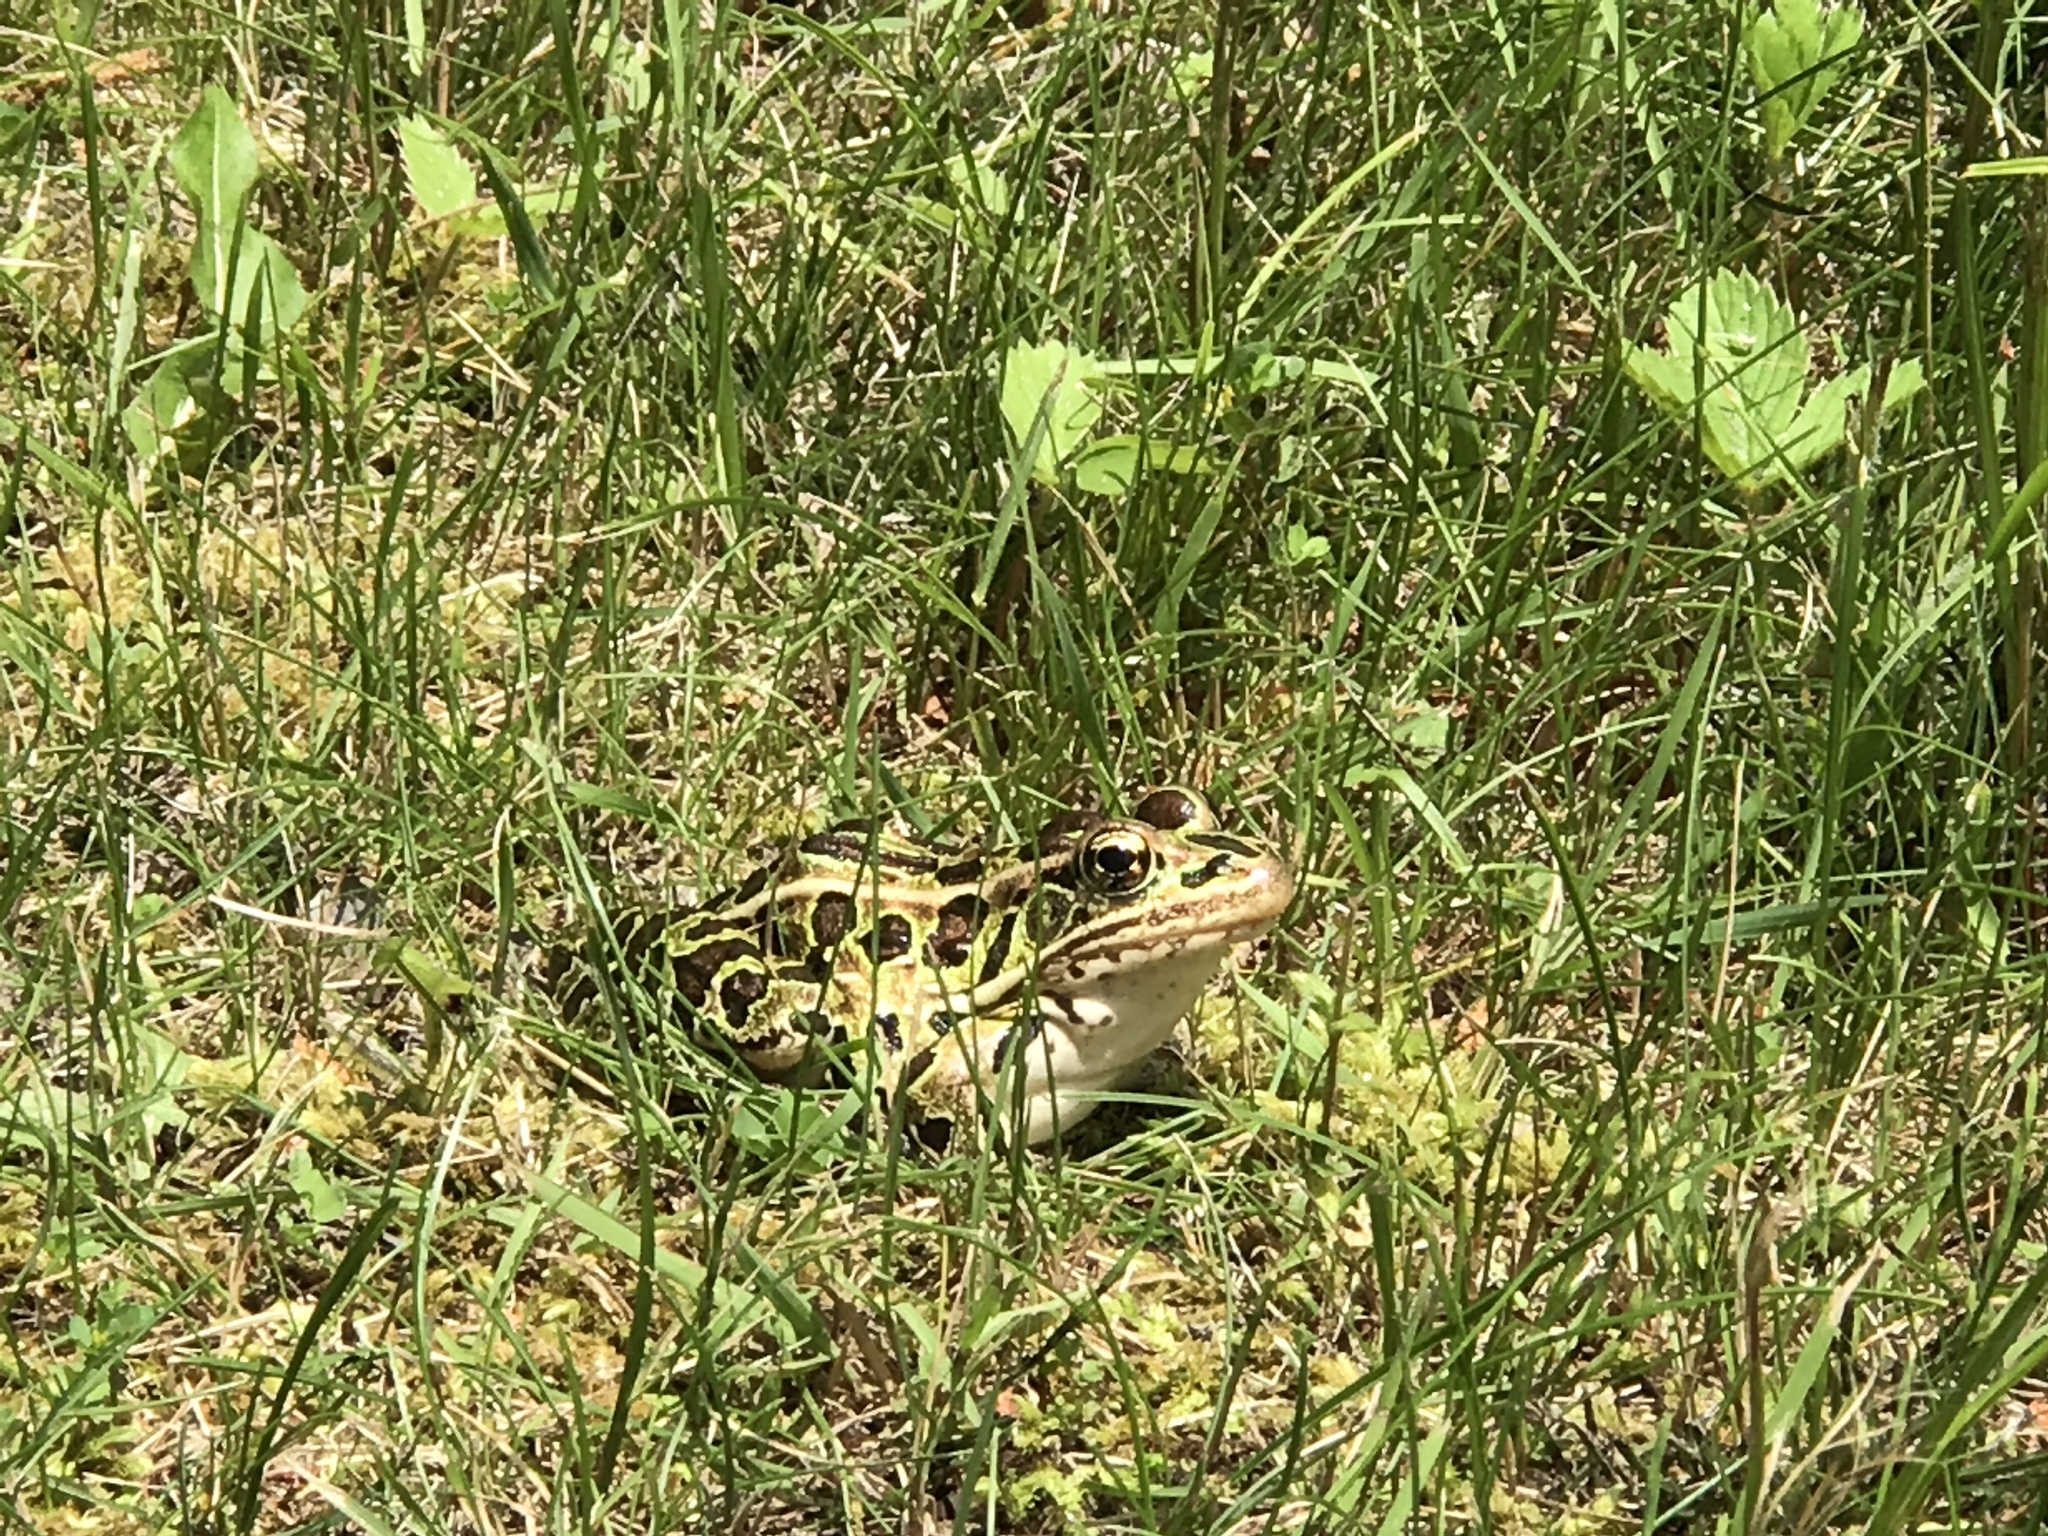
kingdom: Animalia
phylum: Chordata
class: Amphibia
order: Anura
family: Ranidae
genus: Lithobates
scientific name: Lithobates pipiens
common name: Northern leopard frog
